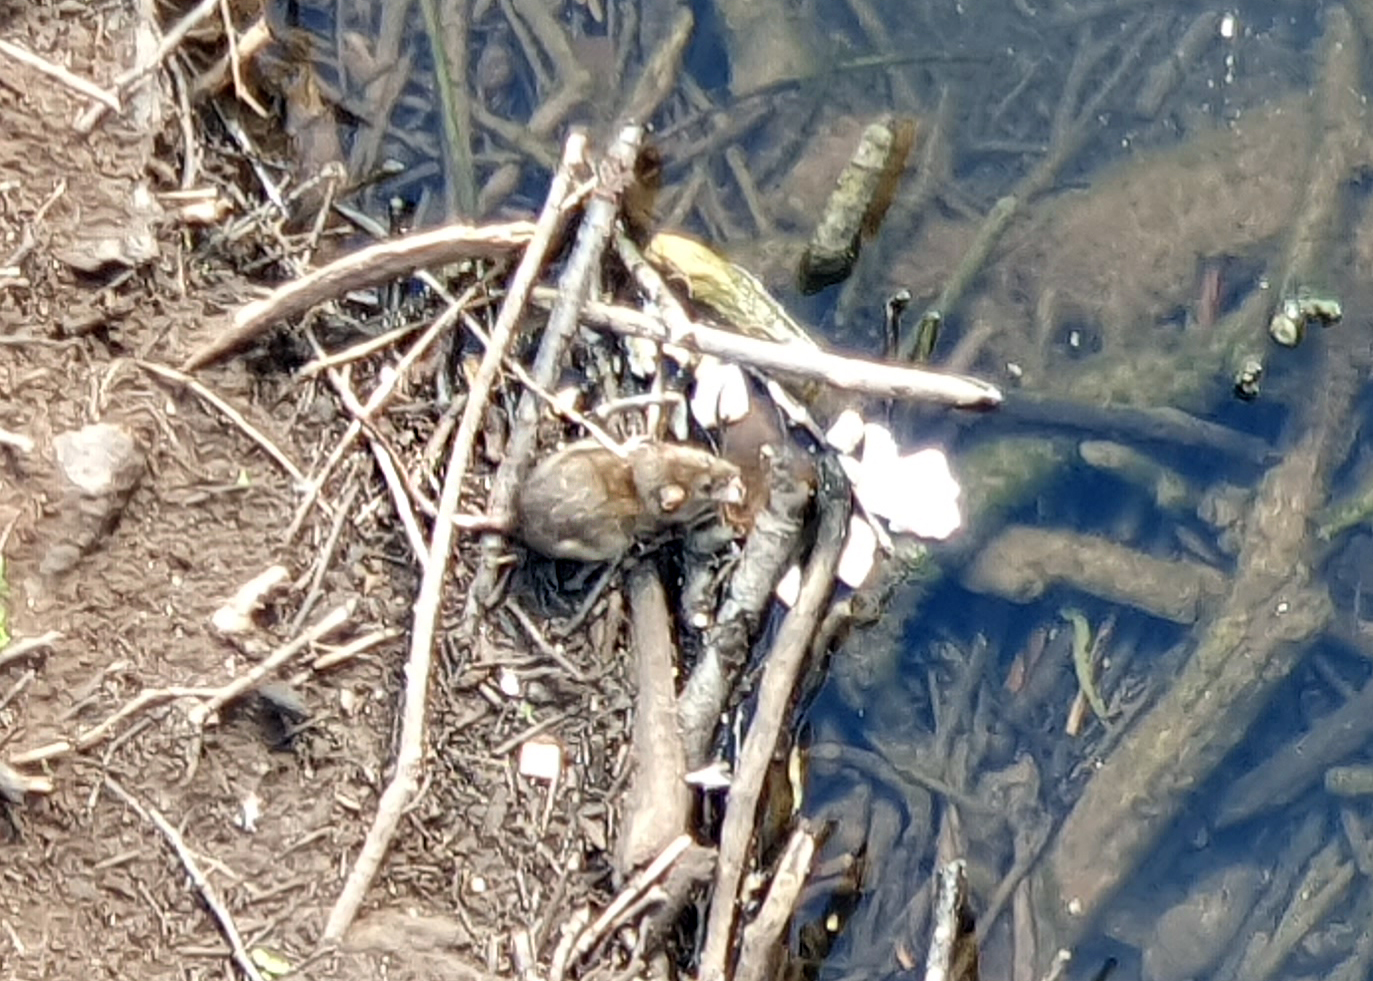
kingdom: Animalia
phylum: Chordata
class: Mammalia
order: Rodentia
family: Muridae
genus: Rattus
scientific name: Rattus norvegicus
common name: Brown rat
